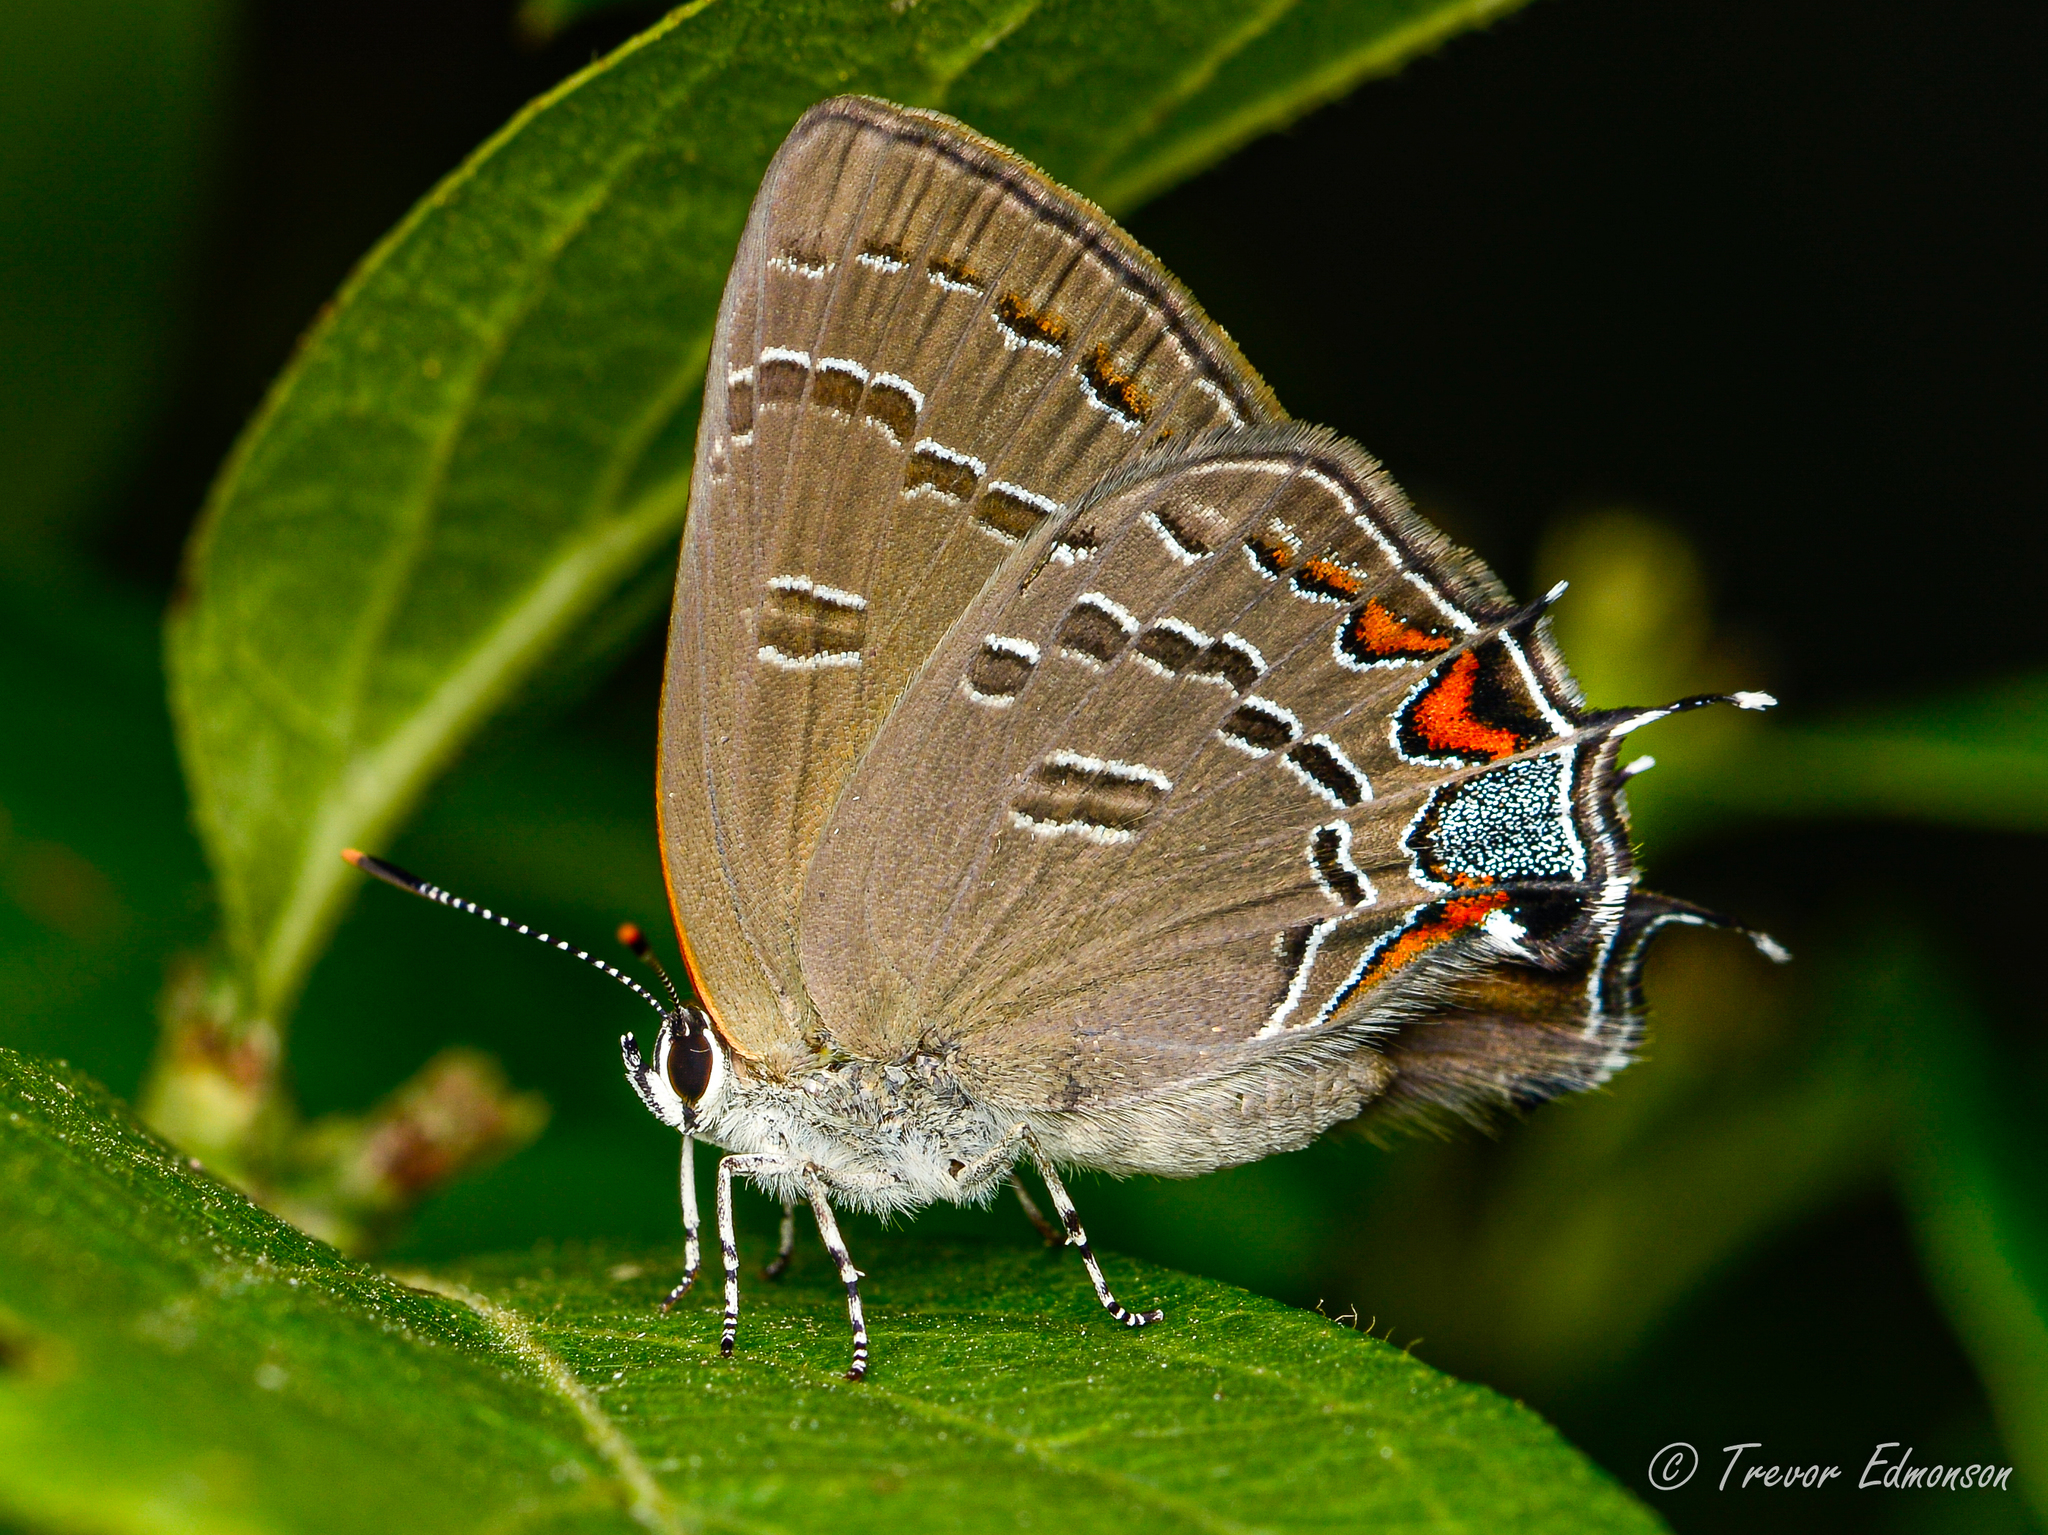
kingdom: Animalia
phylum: Arthropoda
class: Insecta
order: Lepidoptera
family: Lycaenidae
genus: Satyrium
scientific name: Satyrium calanus
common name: Banded hairstreak
